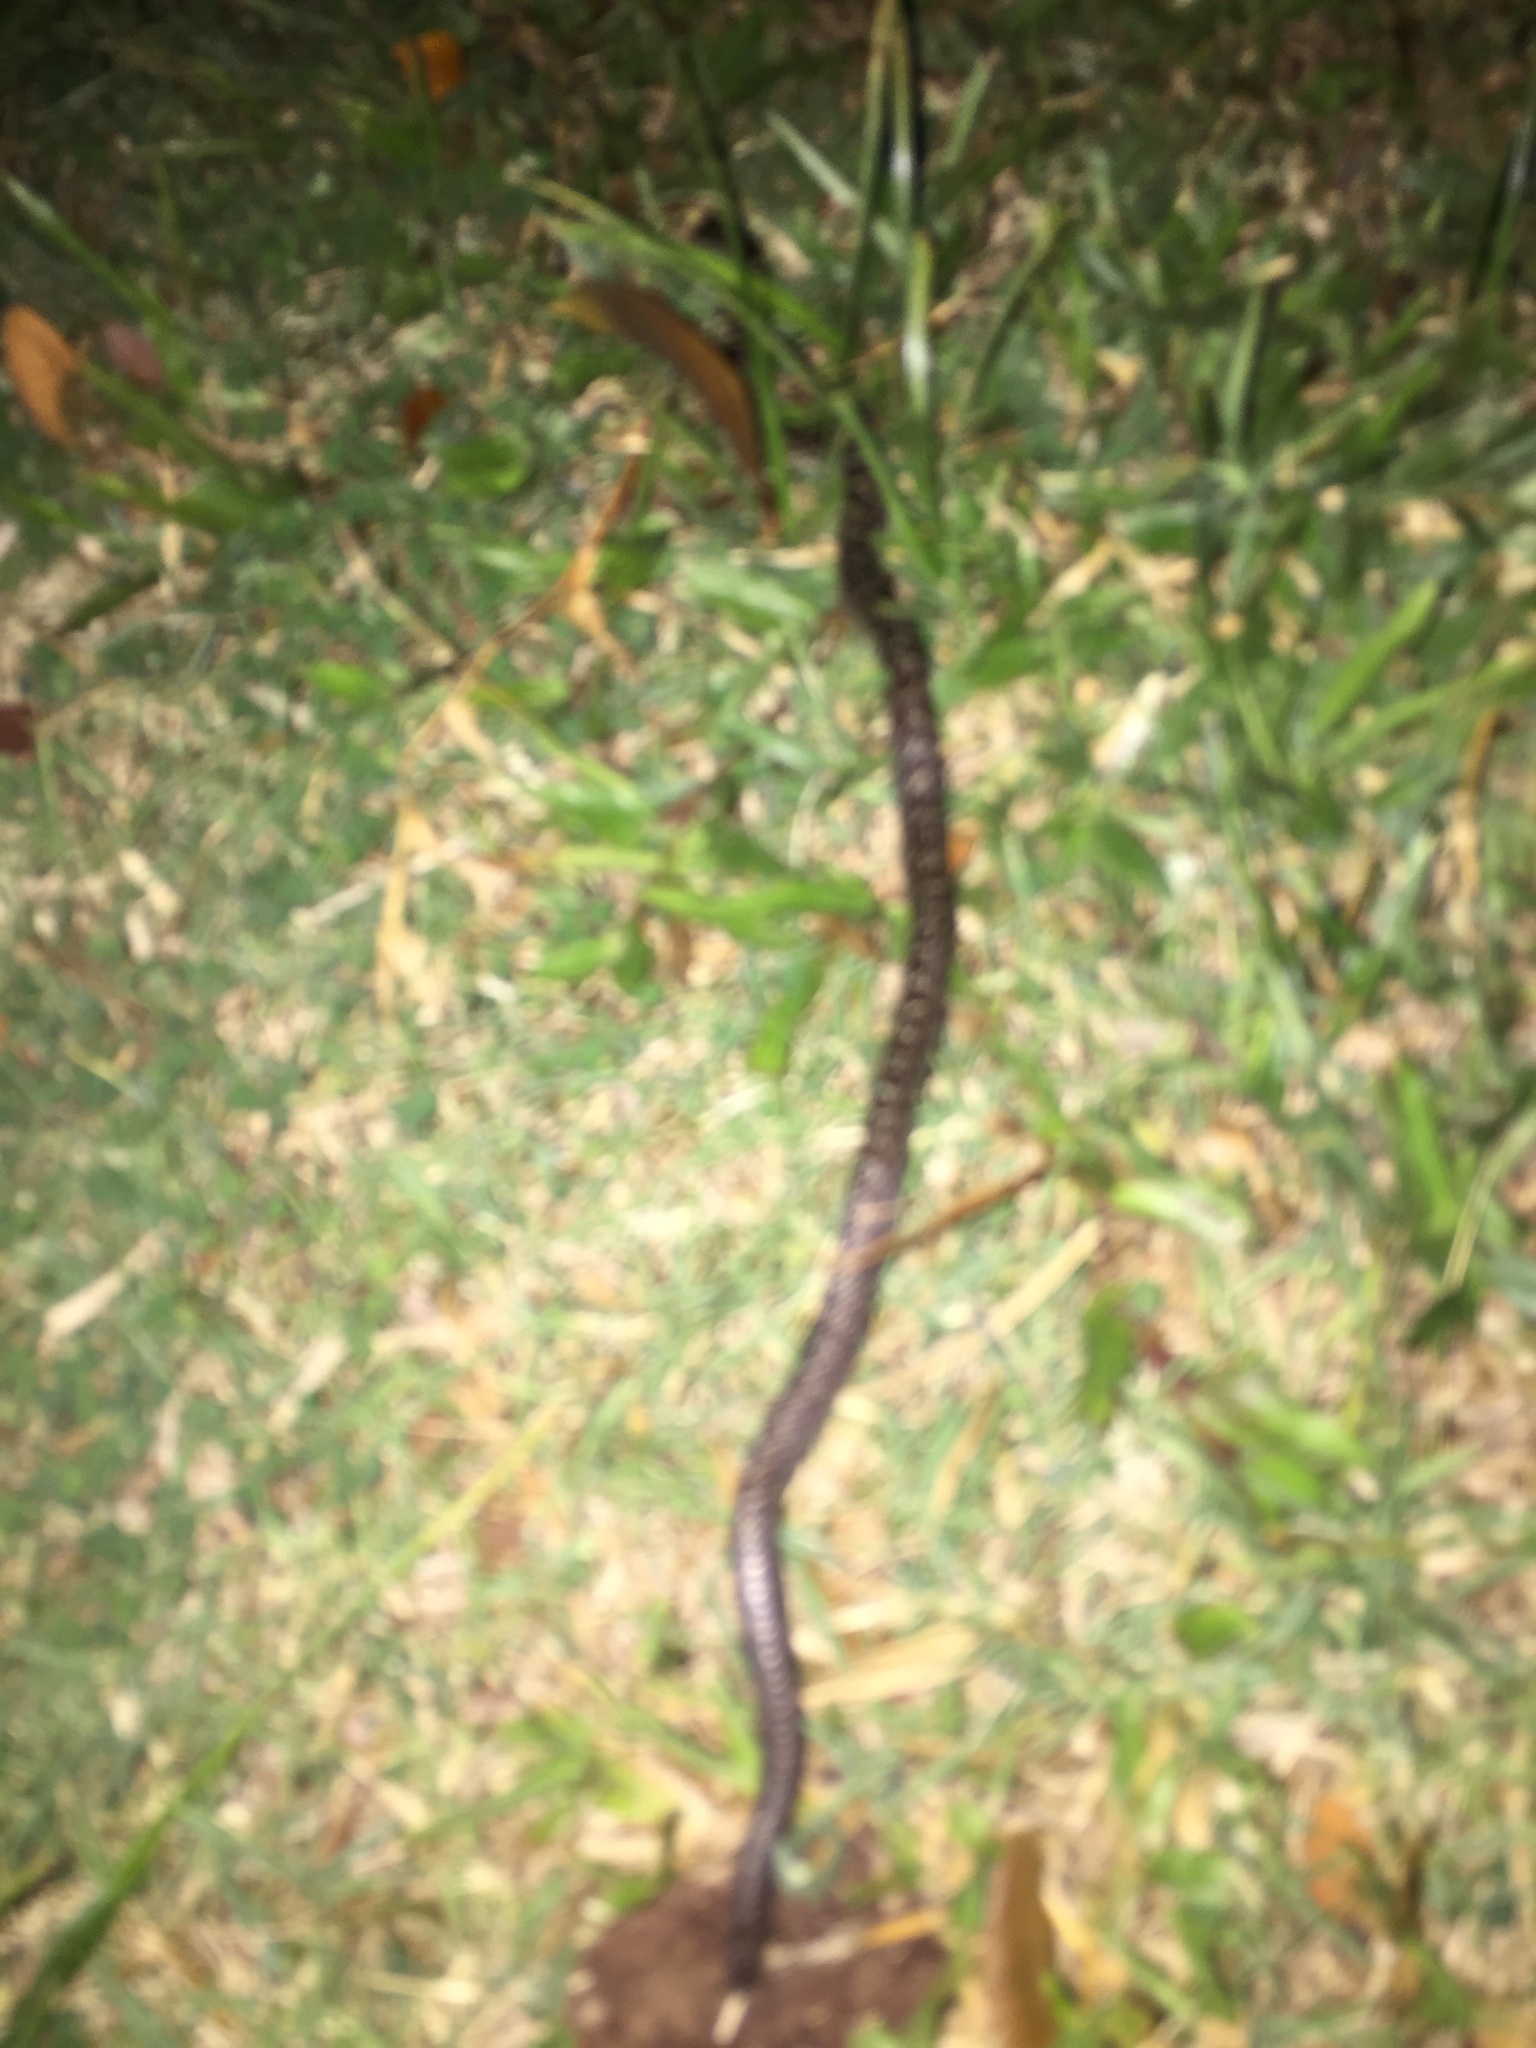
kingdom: Animalia
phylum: Chordata
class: Squamata
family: Colubridae
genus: Lycodon
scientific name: Lycodon capucinus
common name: Common wold snake/house snake
